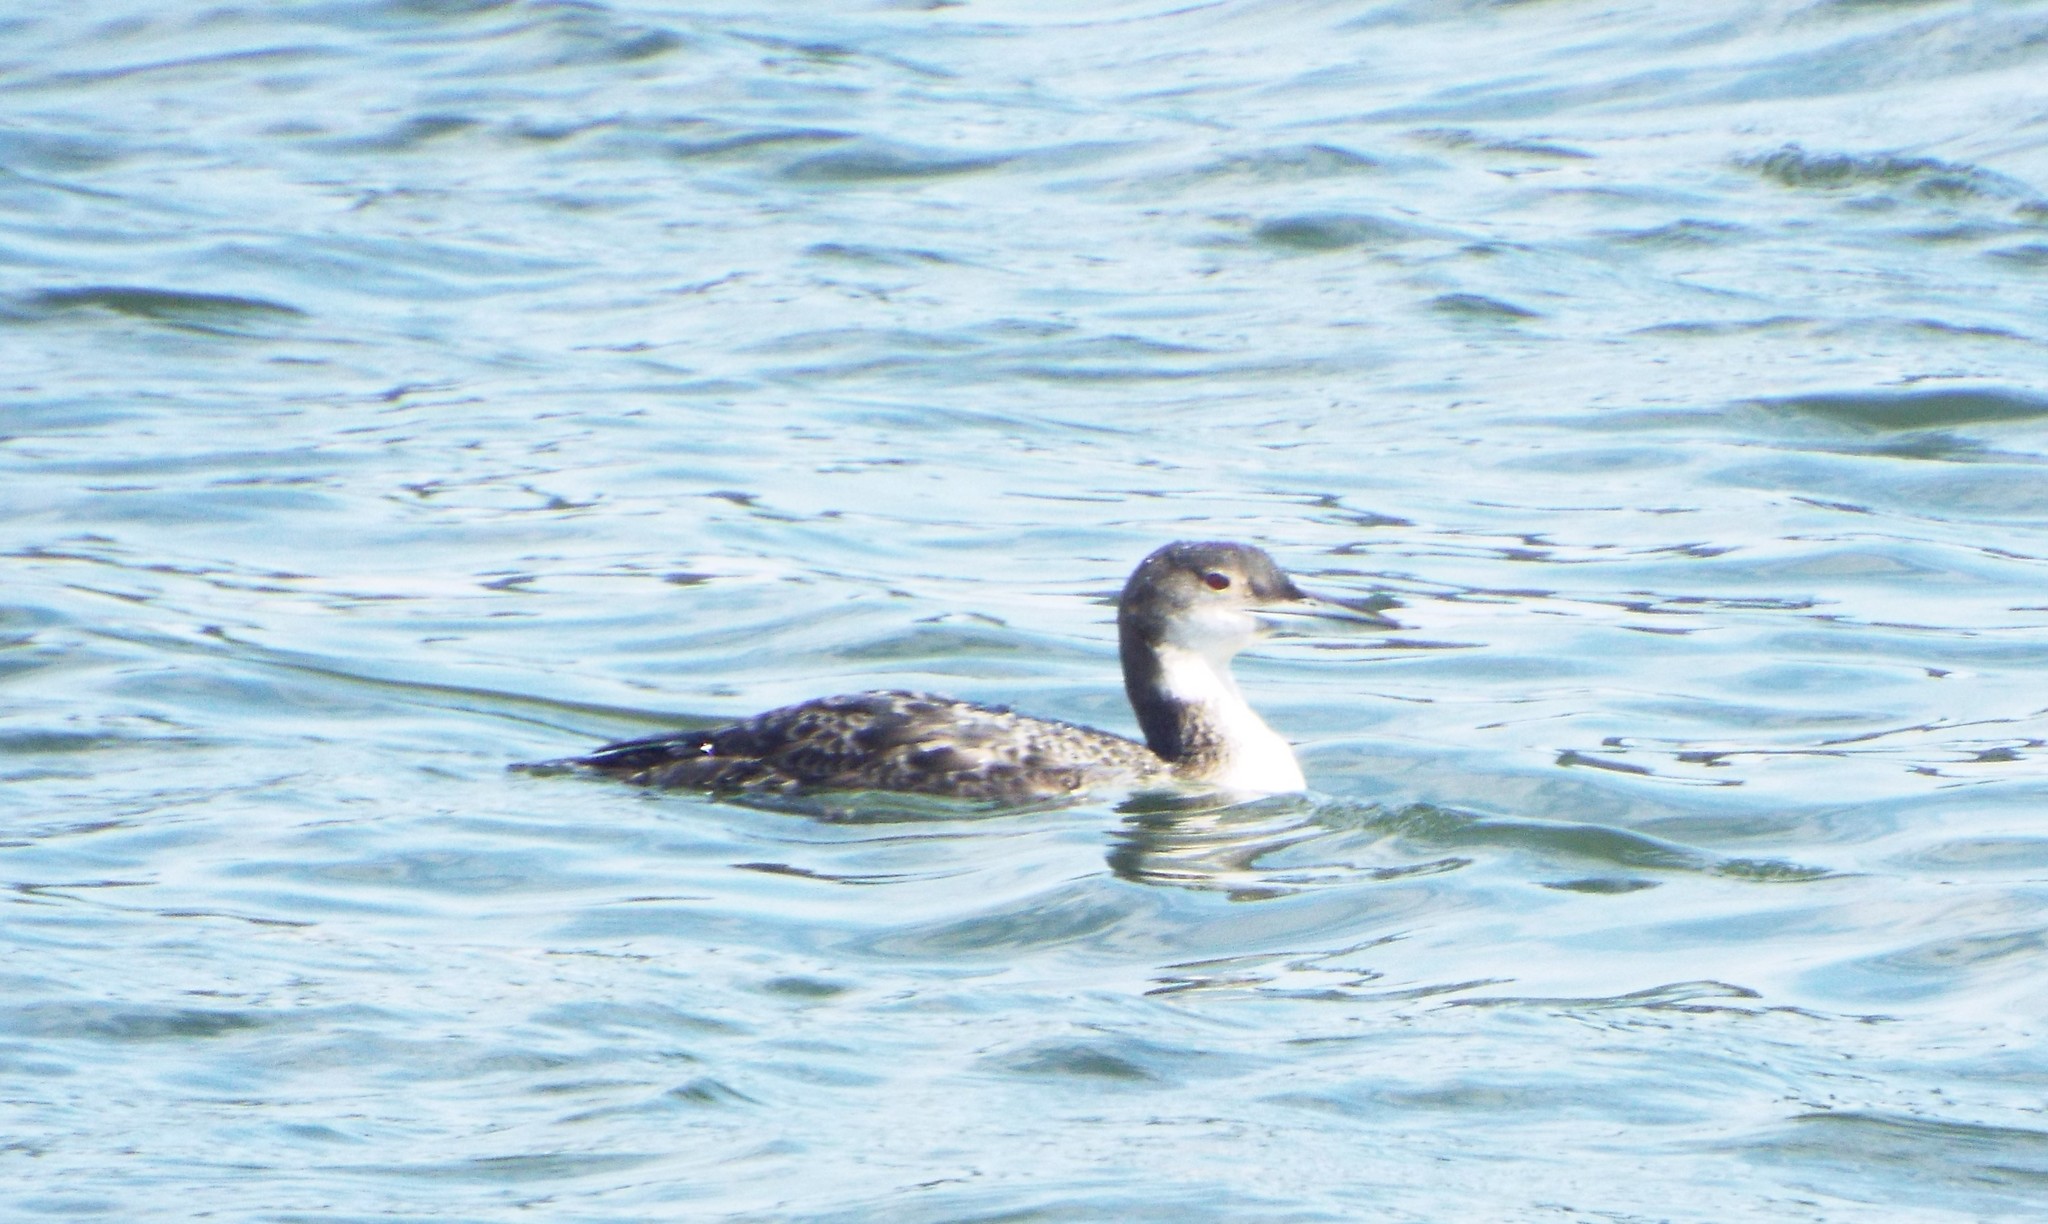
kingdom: Animalia
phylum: Chordata
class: Aves
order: Gaviiformes
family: Gaviidae
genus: Gavia
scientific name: Gavia immer
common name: Common loon
